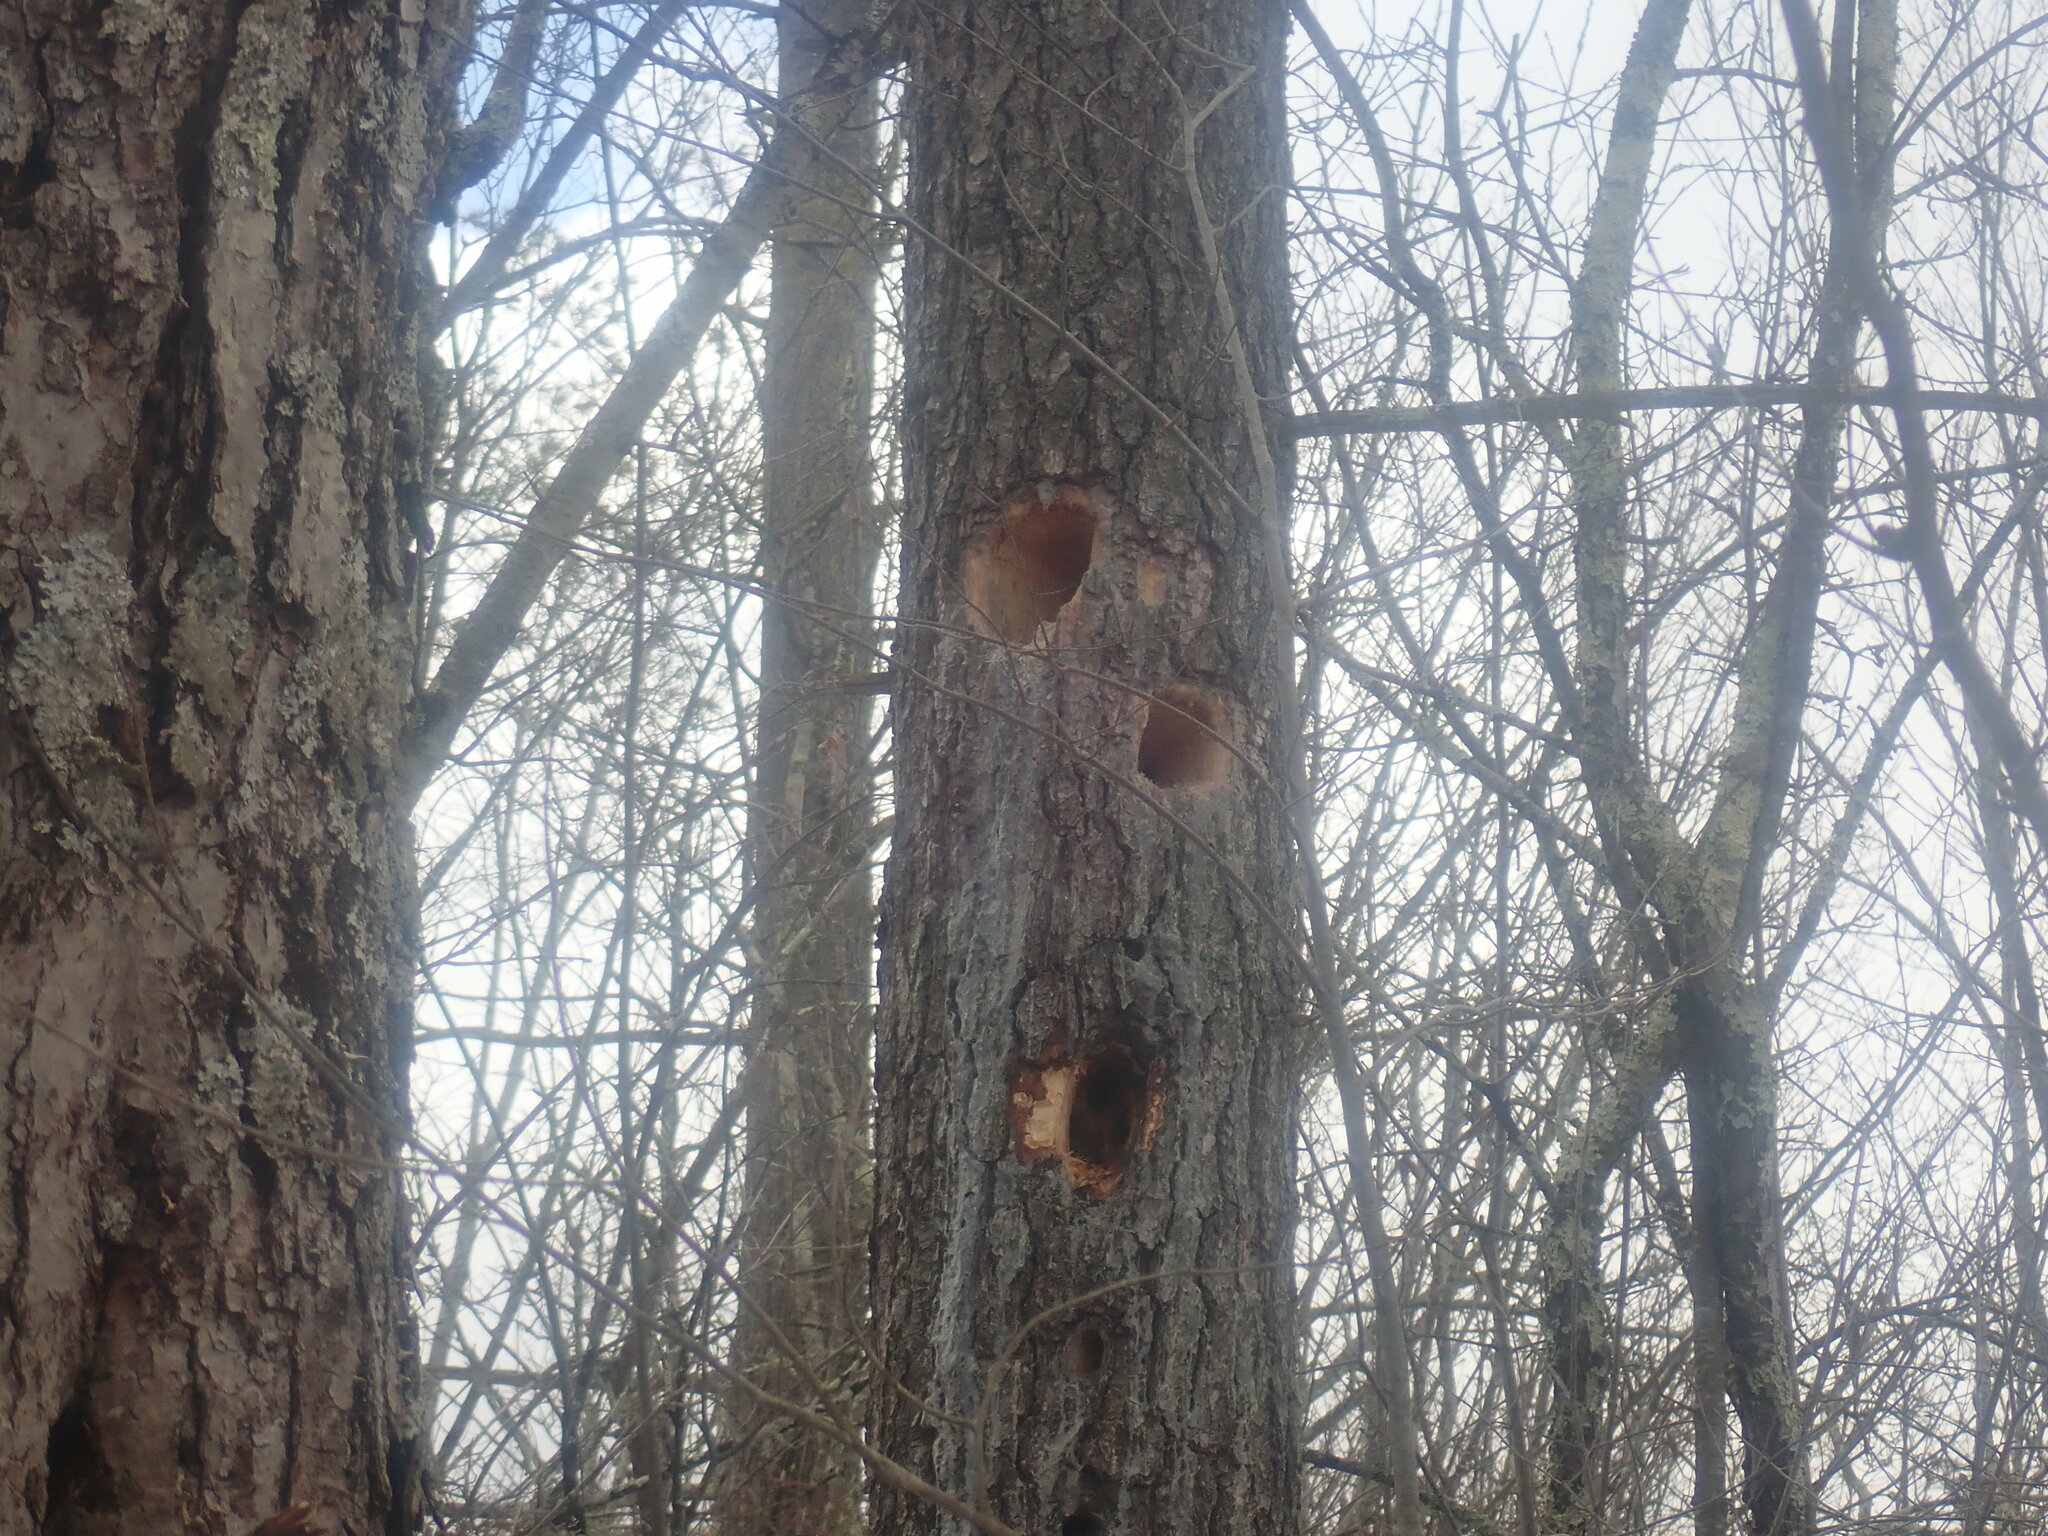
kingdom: Animalia
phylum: Chordata
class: Aves
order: Piciformes
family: Picidae
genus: Dryocopus
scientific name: Dryocopus pileatus
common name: Pileated woodpecker
